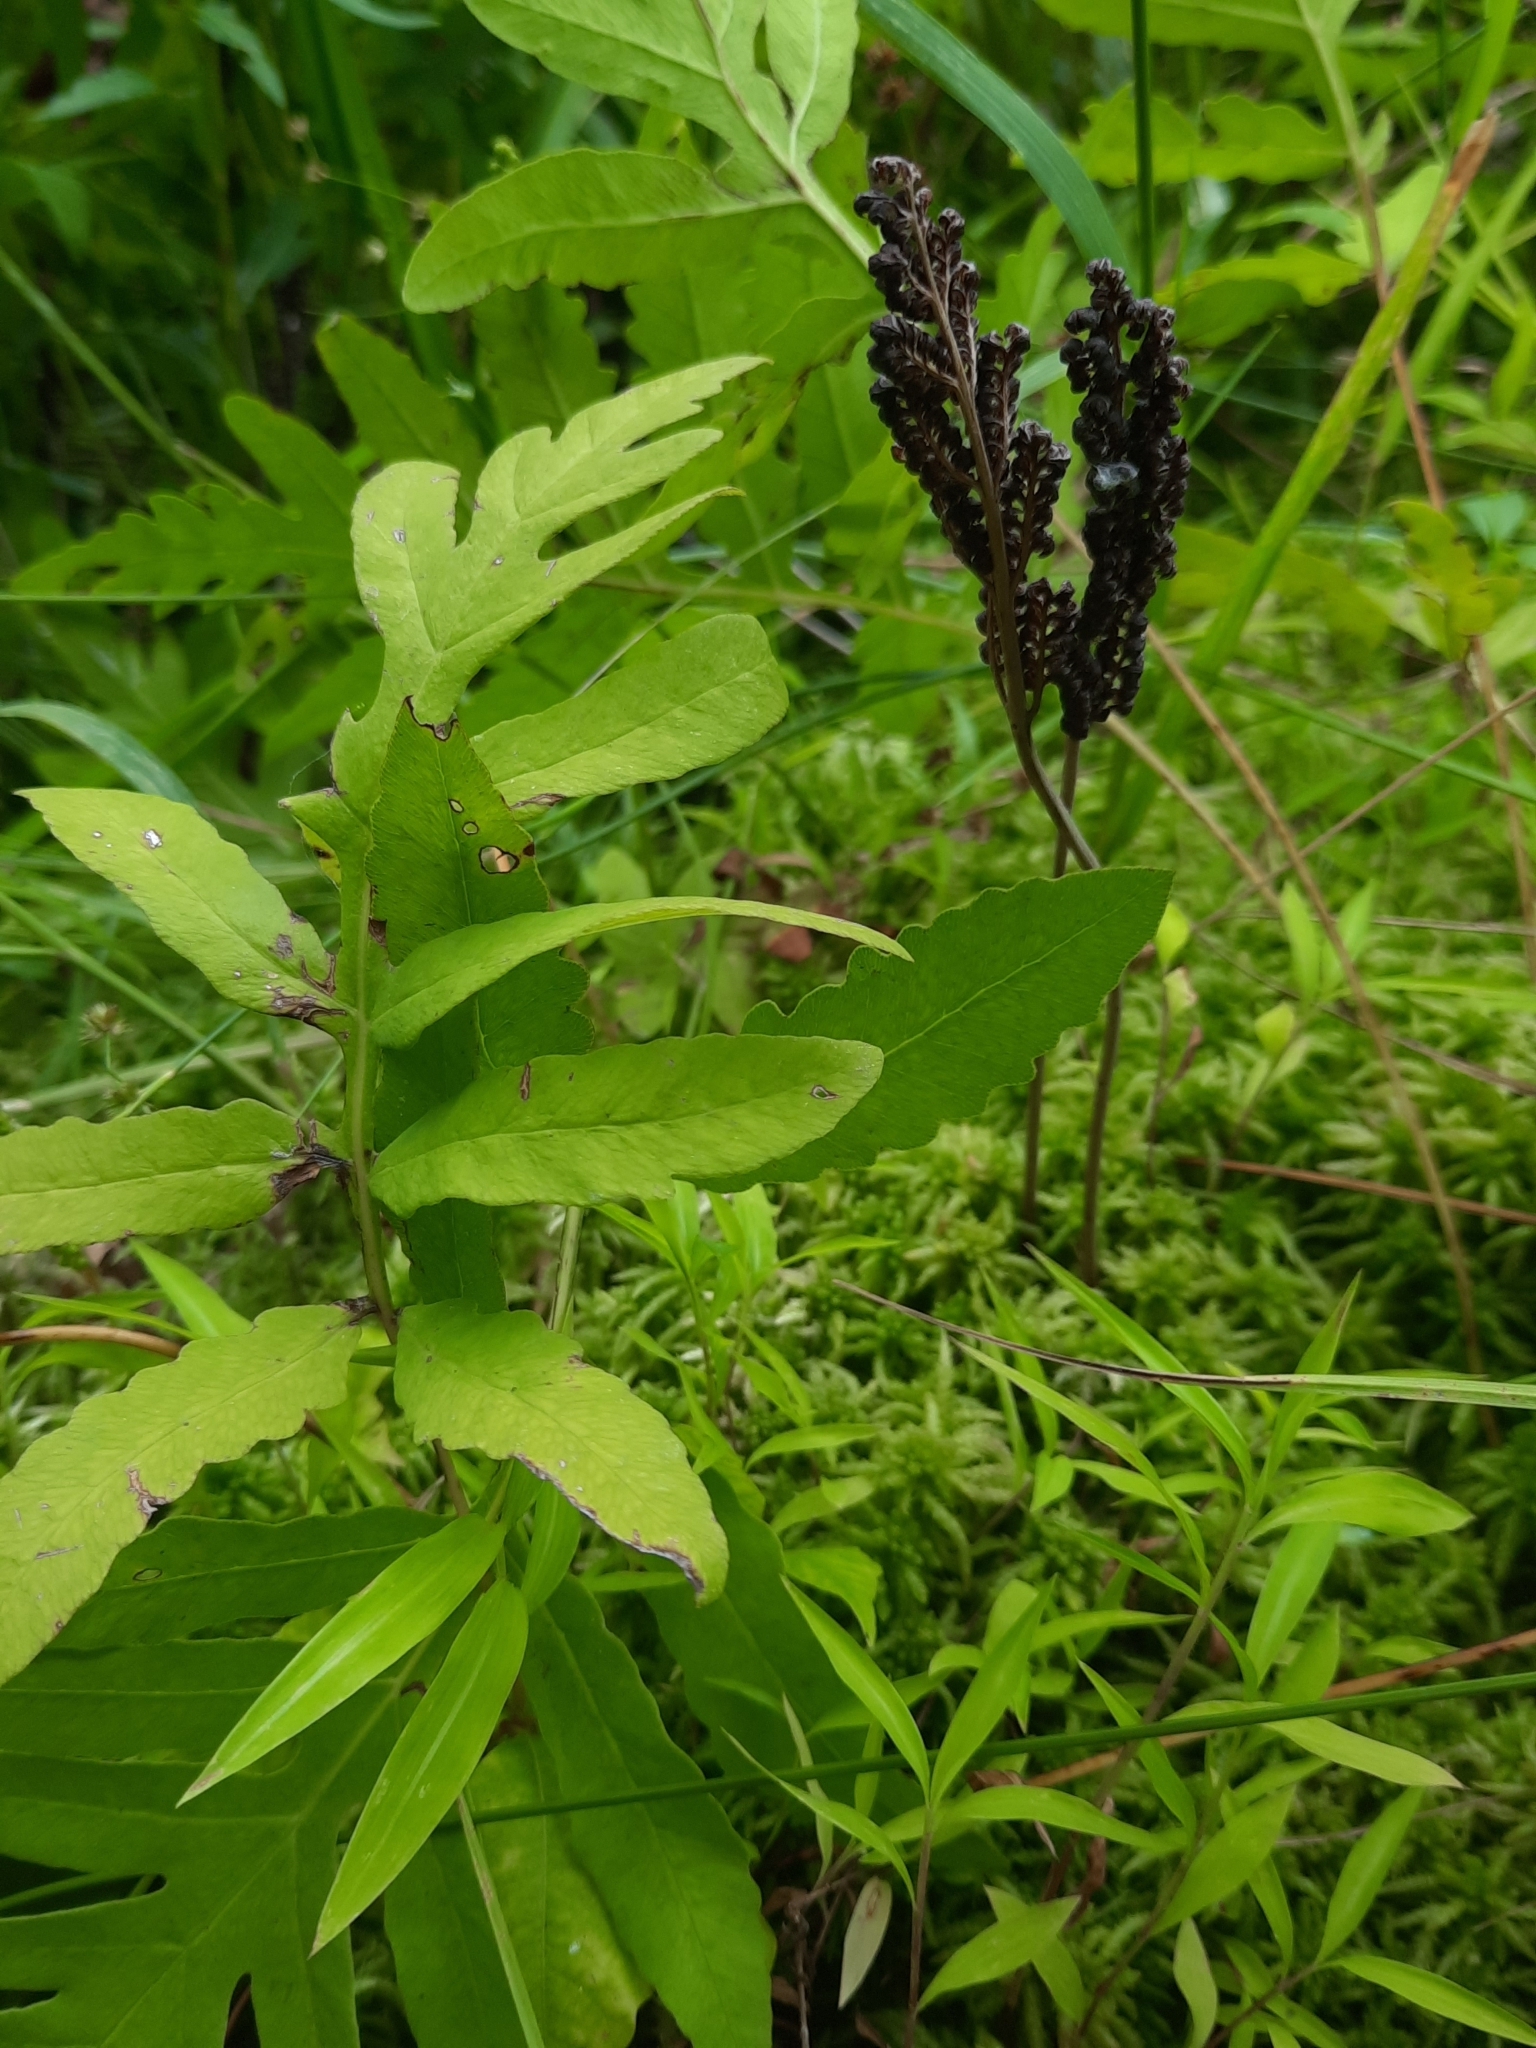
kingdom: Plantae
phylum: Tracheophyta
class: Polypodiopsida
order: Polypodiales
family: Onocleaceae
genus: Onoclea
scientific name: Onoclea sensibilis
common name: Sensitive fern
